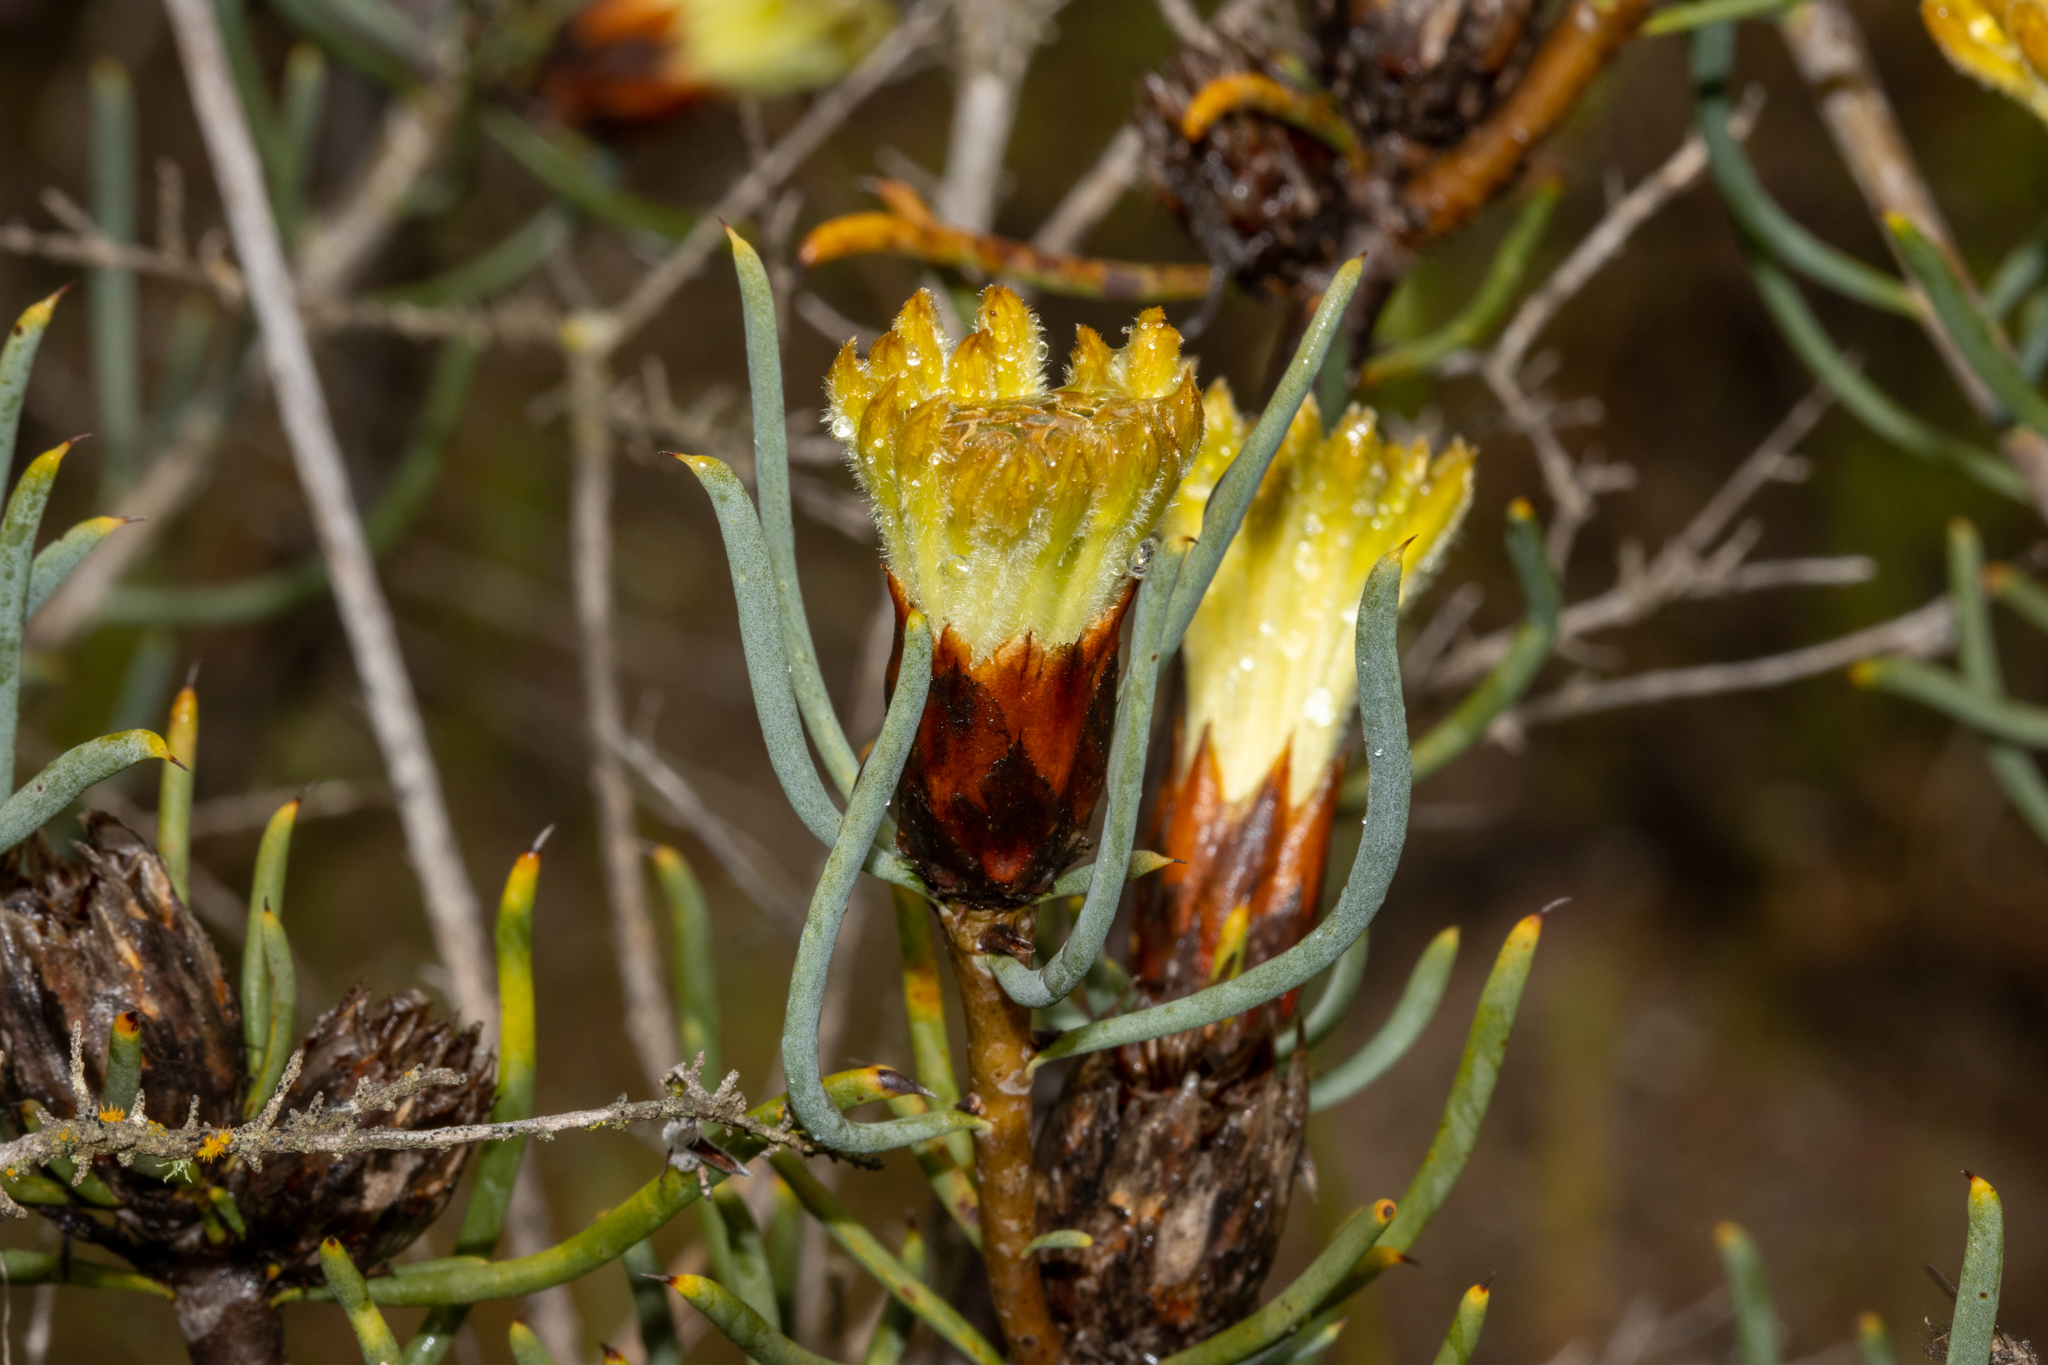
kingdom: Plantae
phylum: Tracheophyta
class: Magnoliopsida
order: Proteales
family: Proteaceae
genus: Petrophile
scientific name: Petrophile megalostegia
